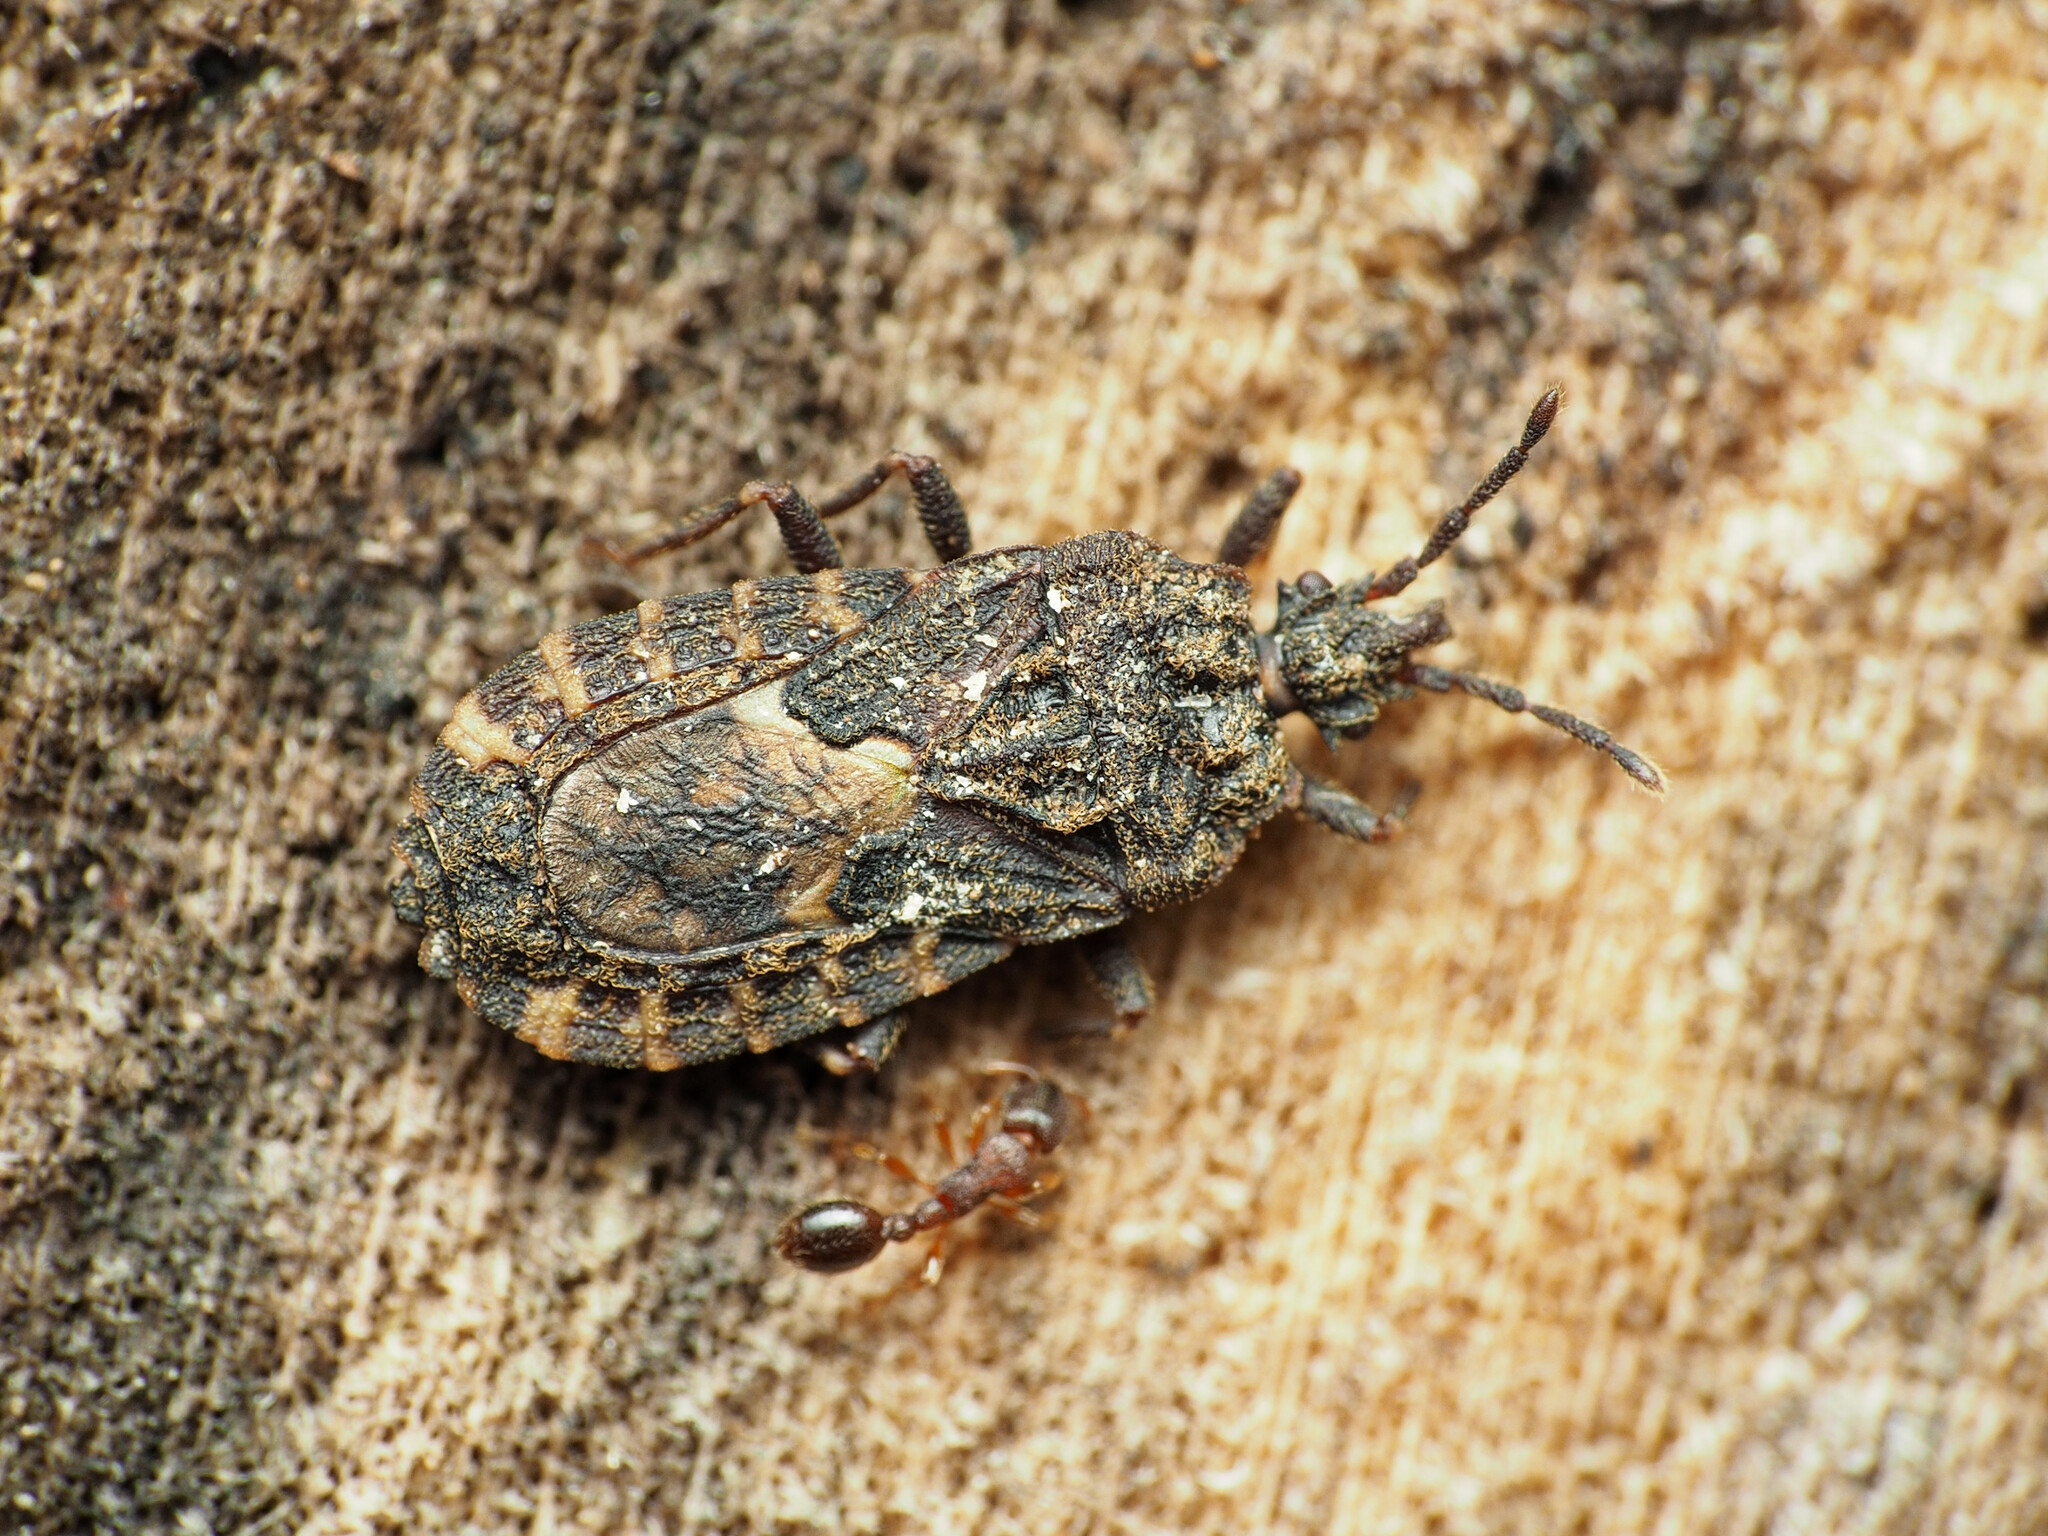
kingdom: Animalia
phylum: Arthropoda
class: Insecta
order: Hemiptera
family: Aradidae
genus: Mezira
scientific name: Mezira
